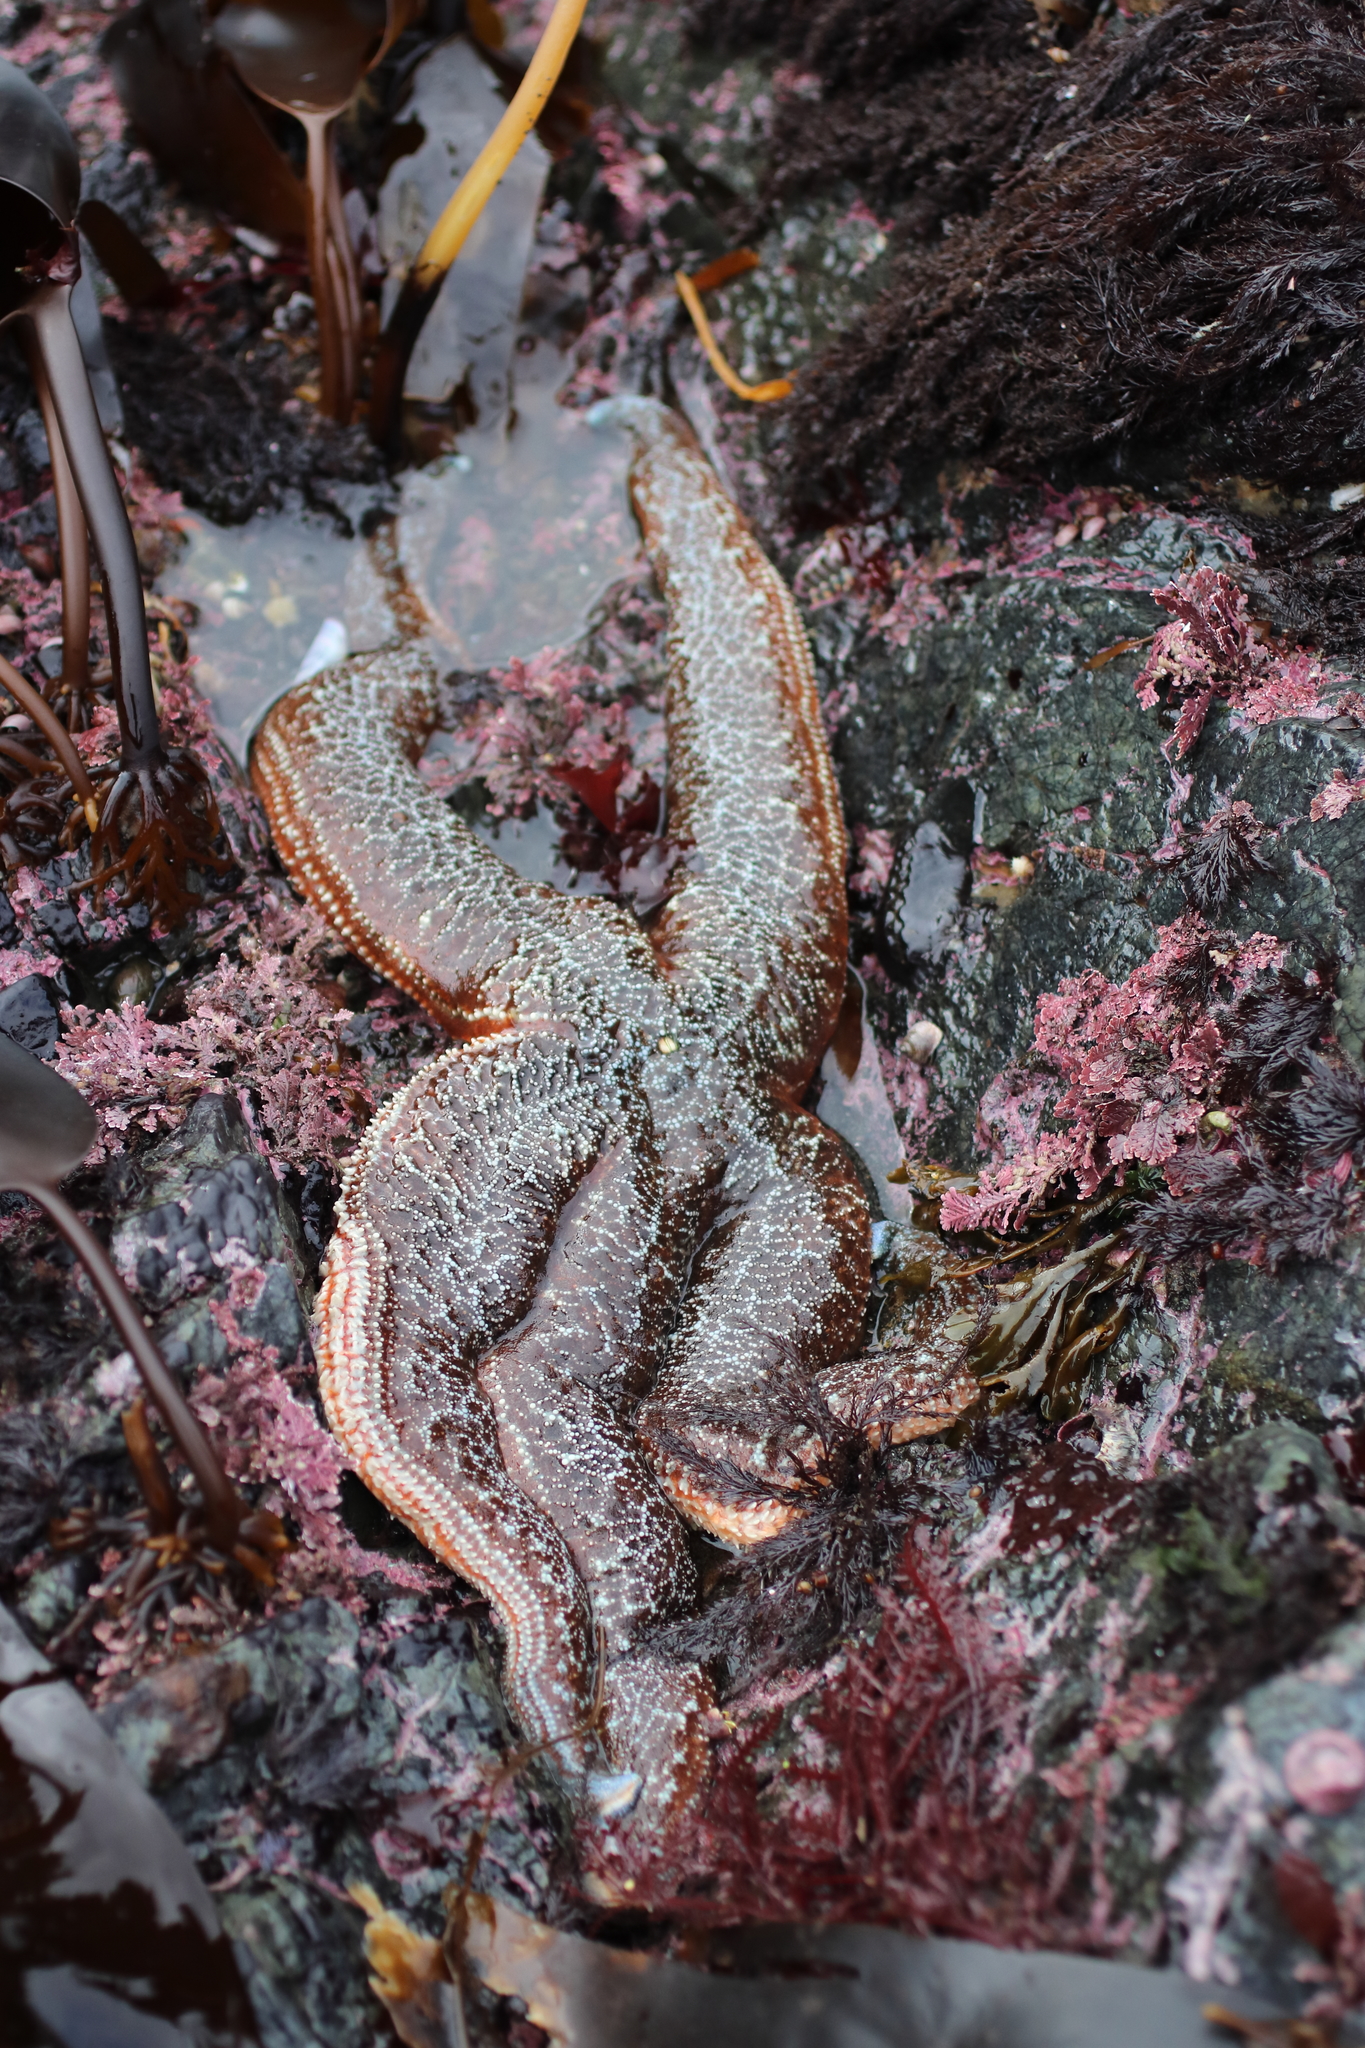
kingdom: Animalia
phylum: Echinodermata
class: Asteroidea
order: Forcipulatida
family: Asteriidae
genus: Evasterias
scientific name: Evasterias troschelii
